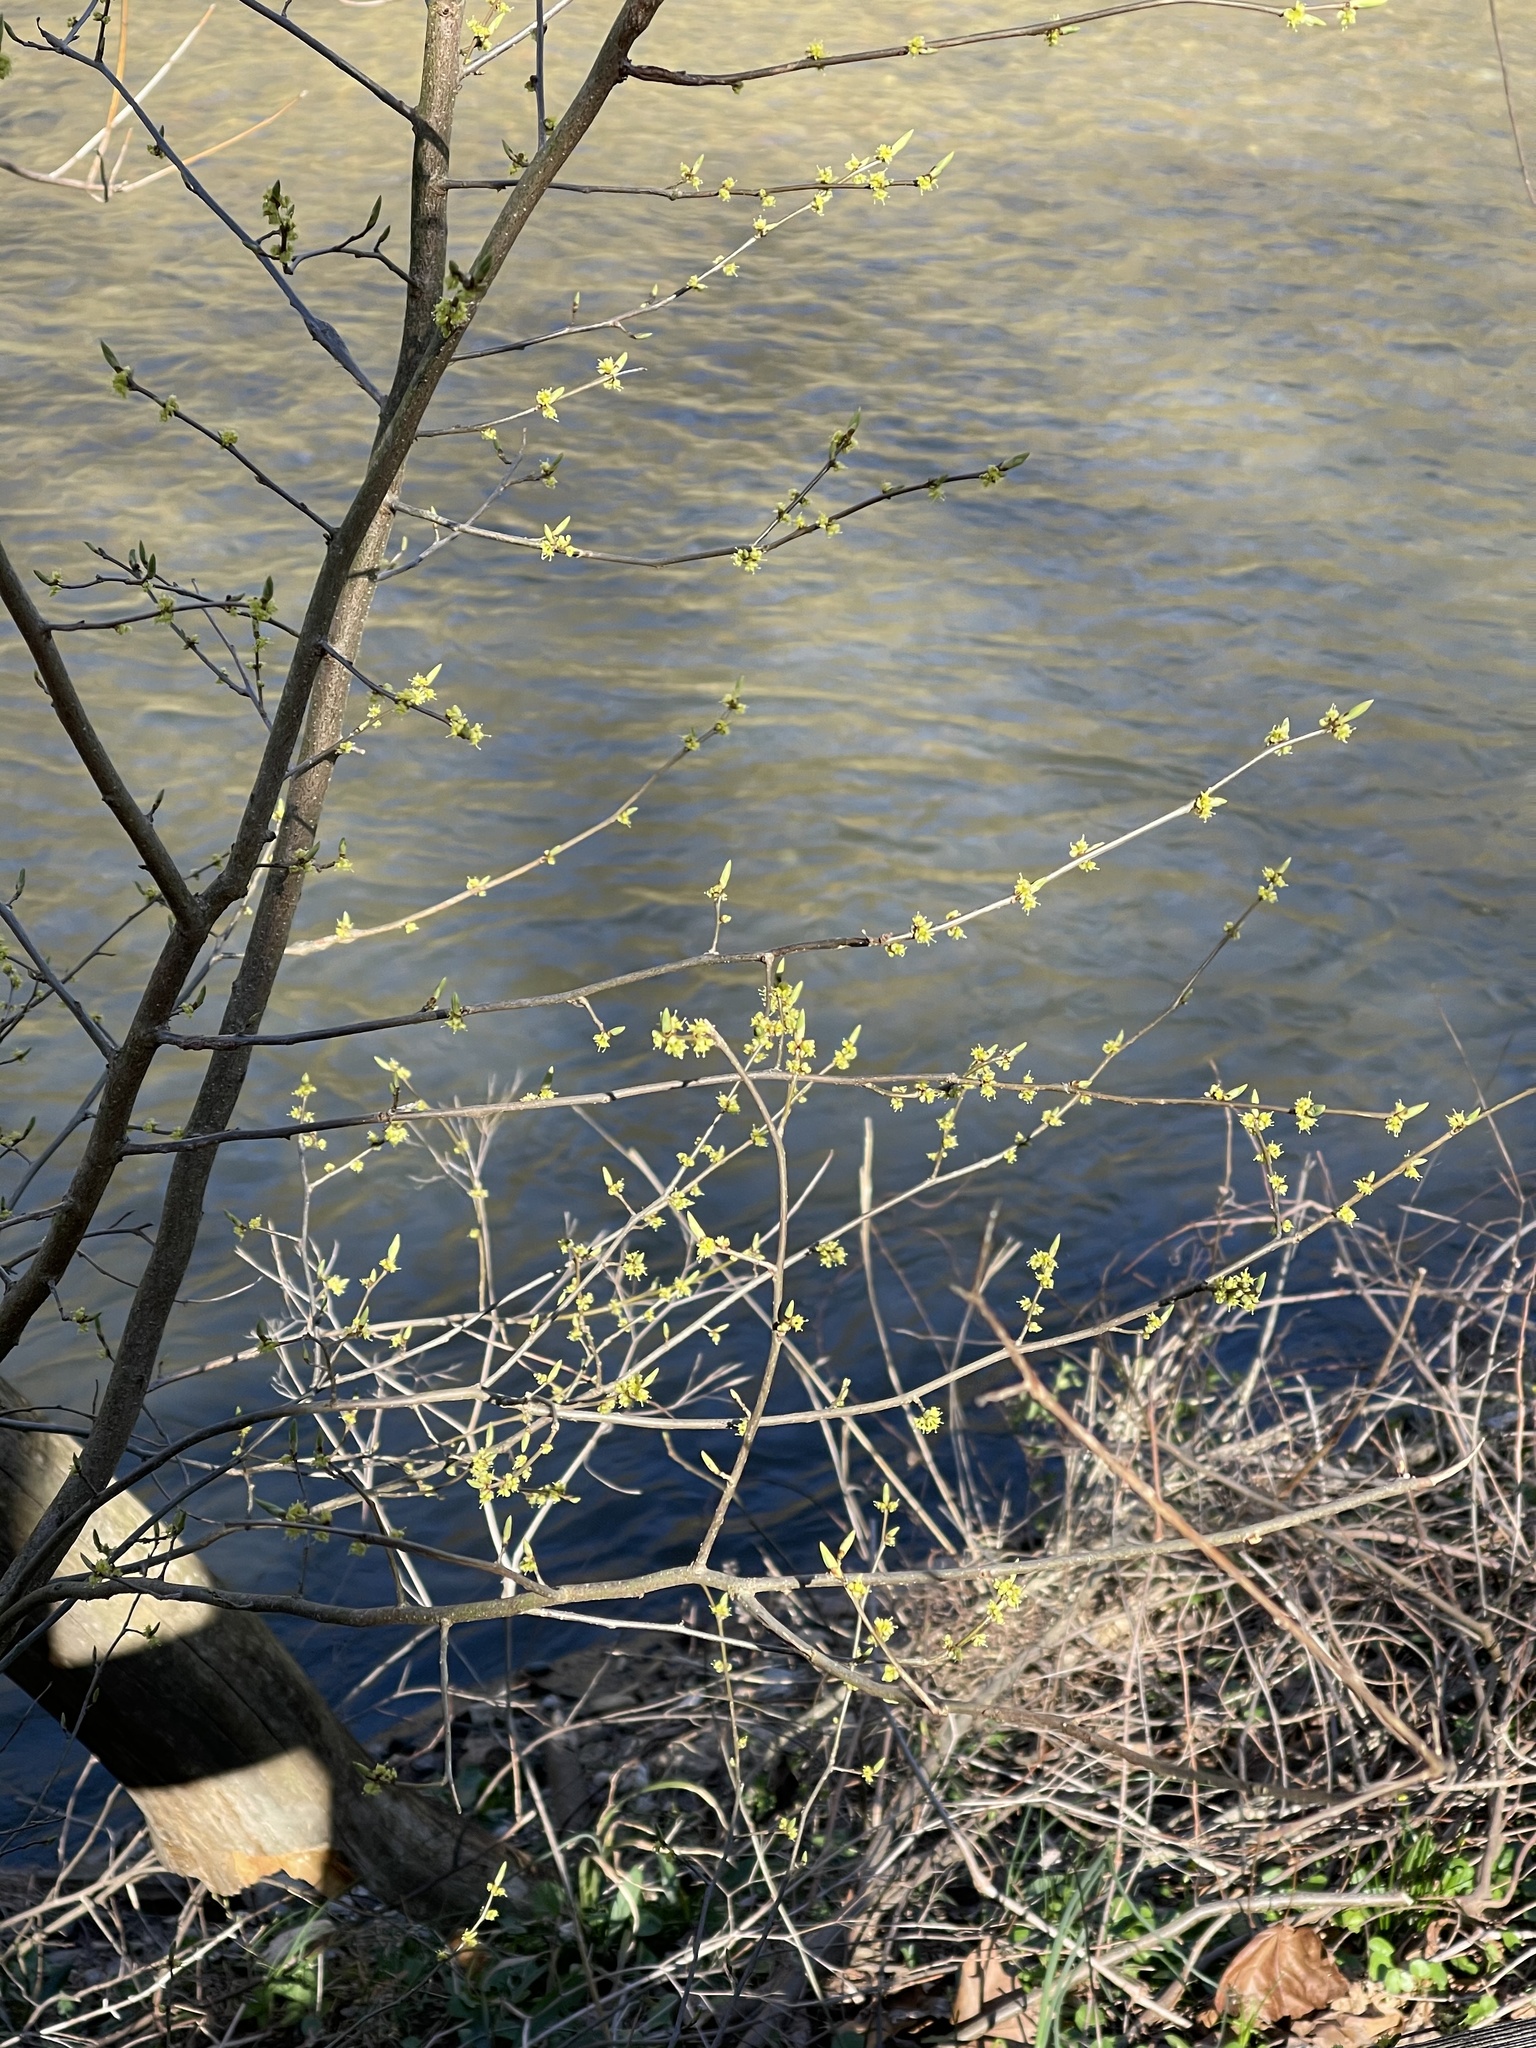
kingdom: Plantae
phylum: Tracheophyta
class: Magnoliopsida
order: Laurales
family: Lauraceae
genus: Lindera
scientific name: Lindera benzoin
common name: Spicebush
